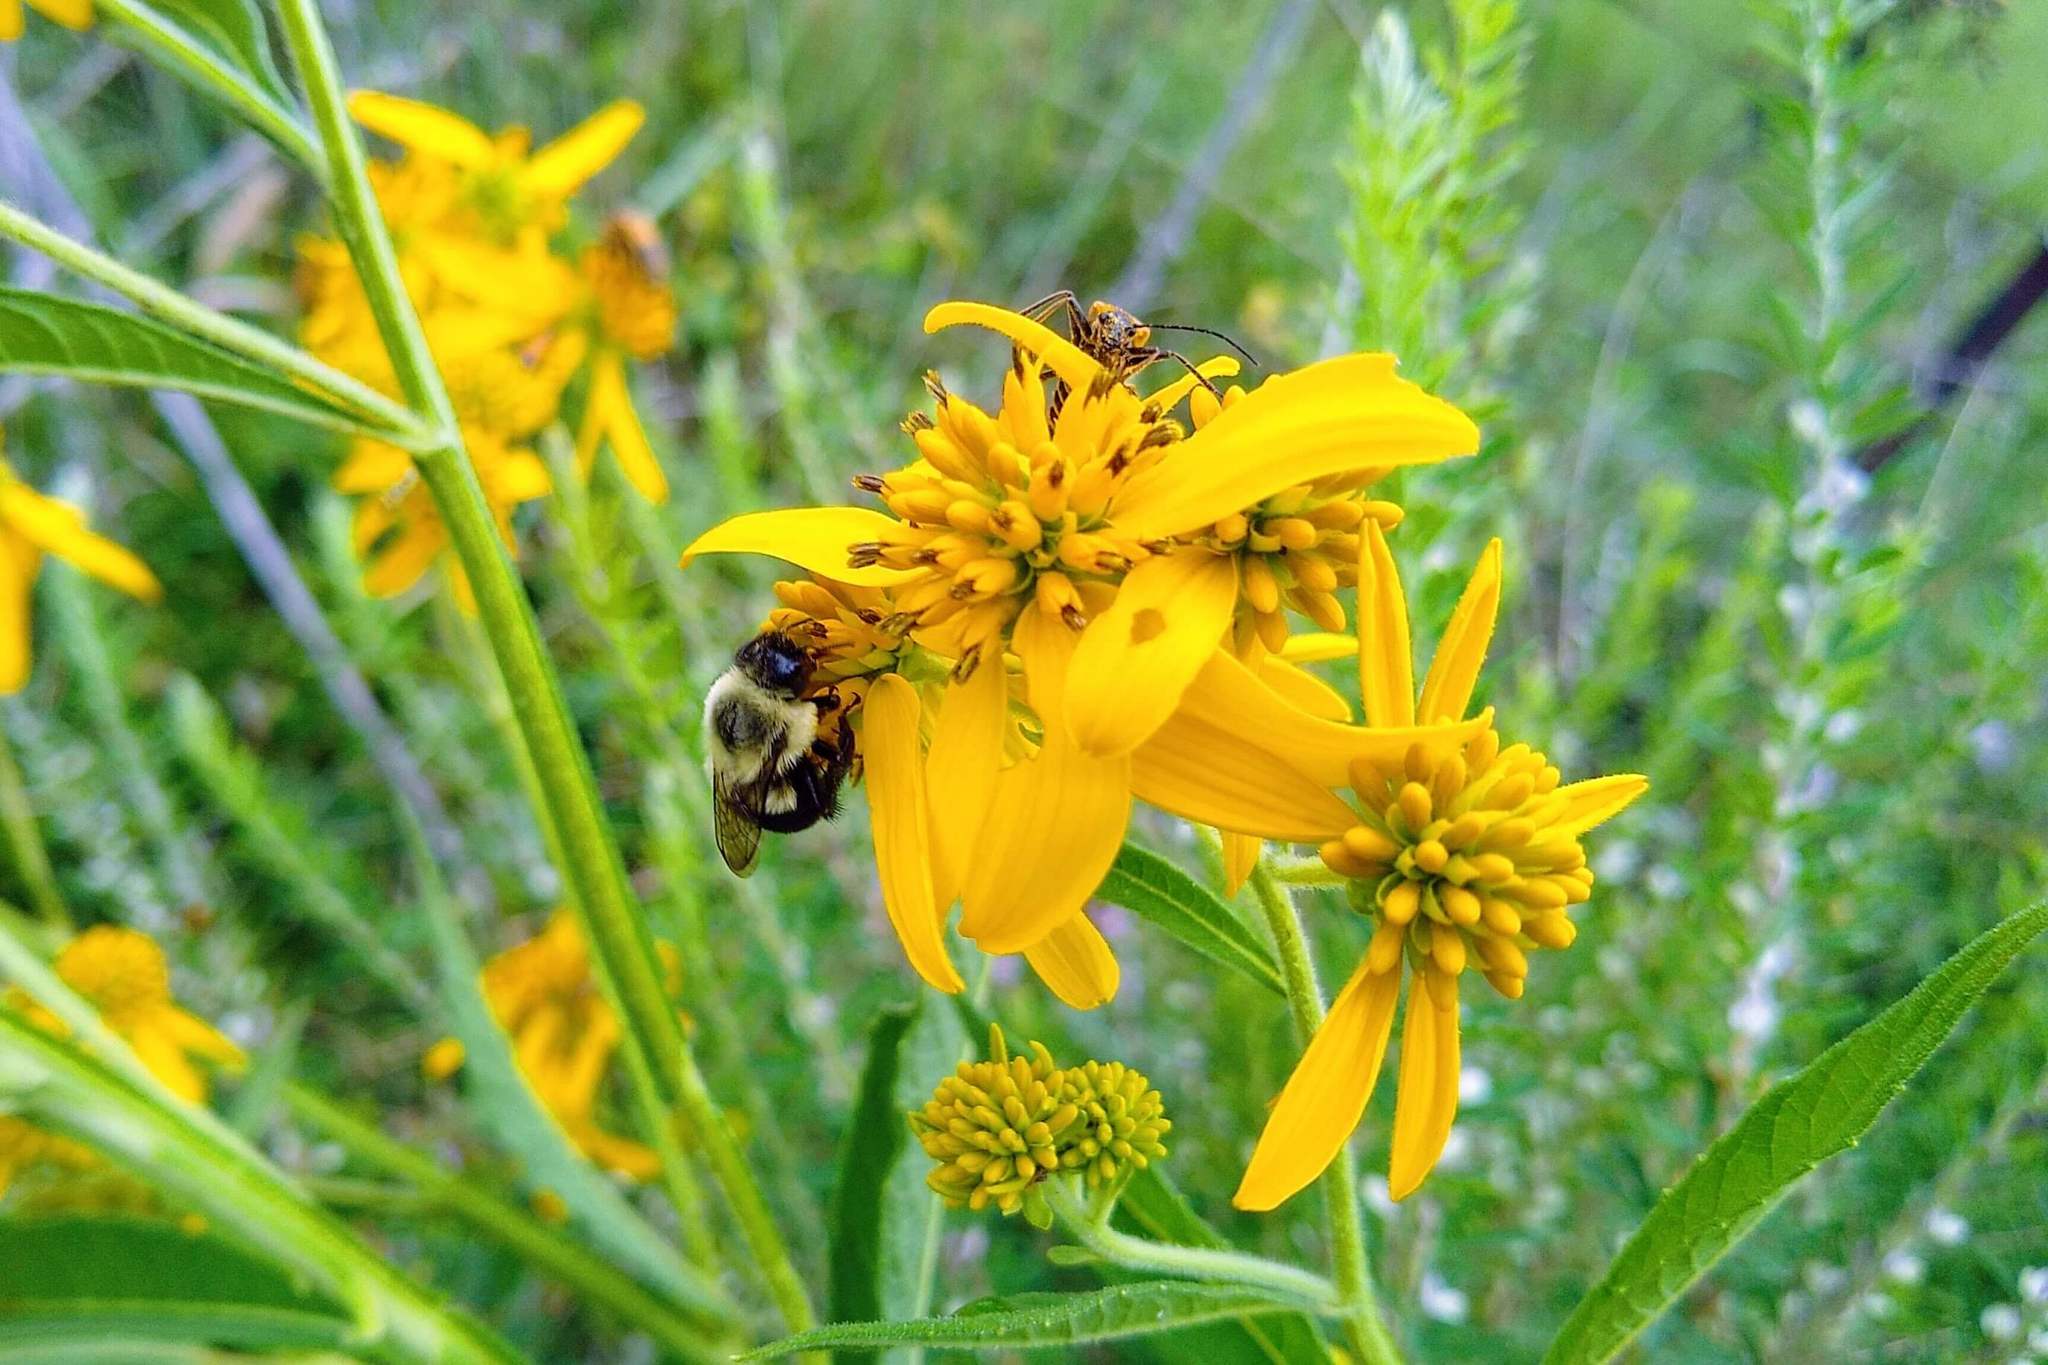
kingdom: Plantae
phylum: Tracheophyta
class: Magnoliopsida
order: Asterales
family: Asteraceae
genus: Verbesina
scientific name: Verbesina alternifolia
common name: Wingstem
